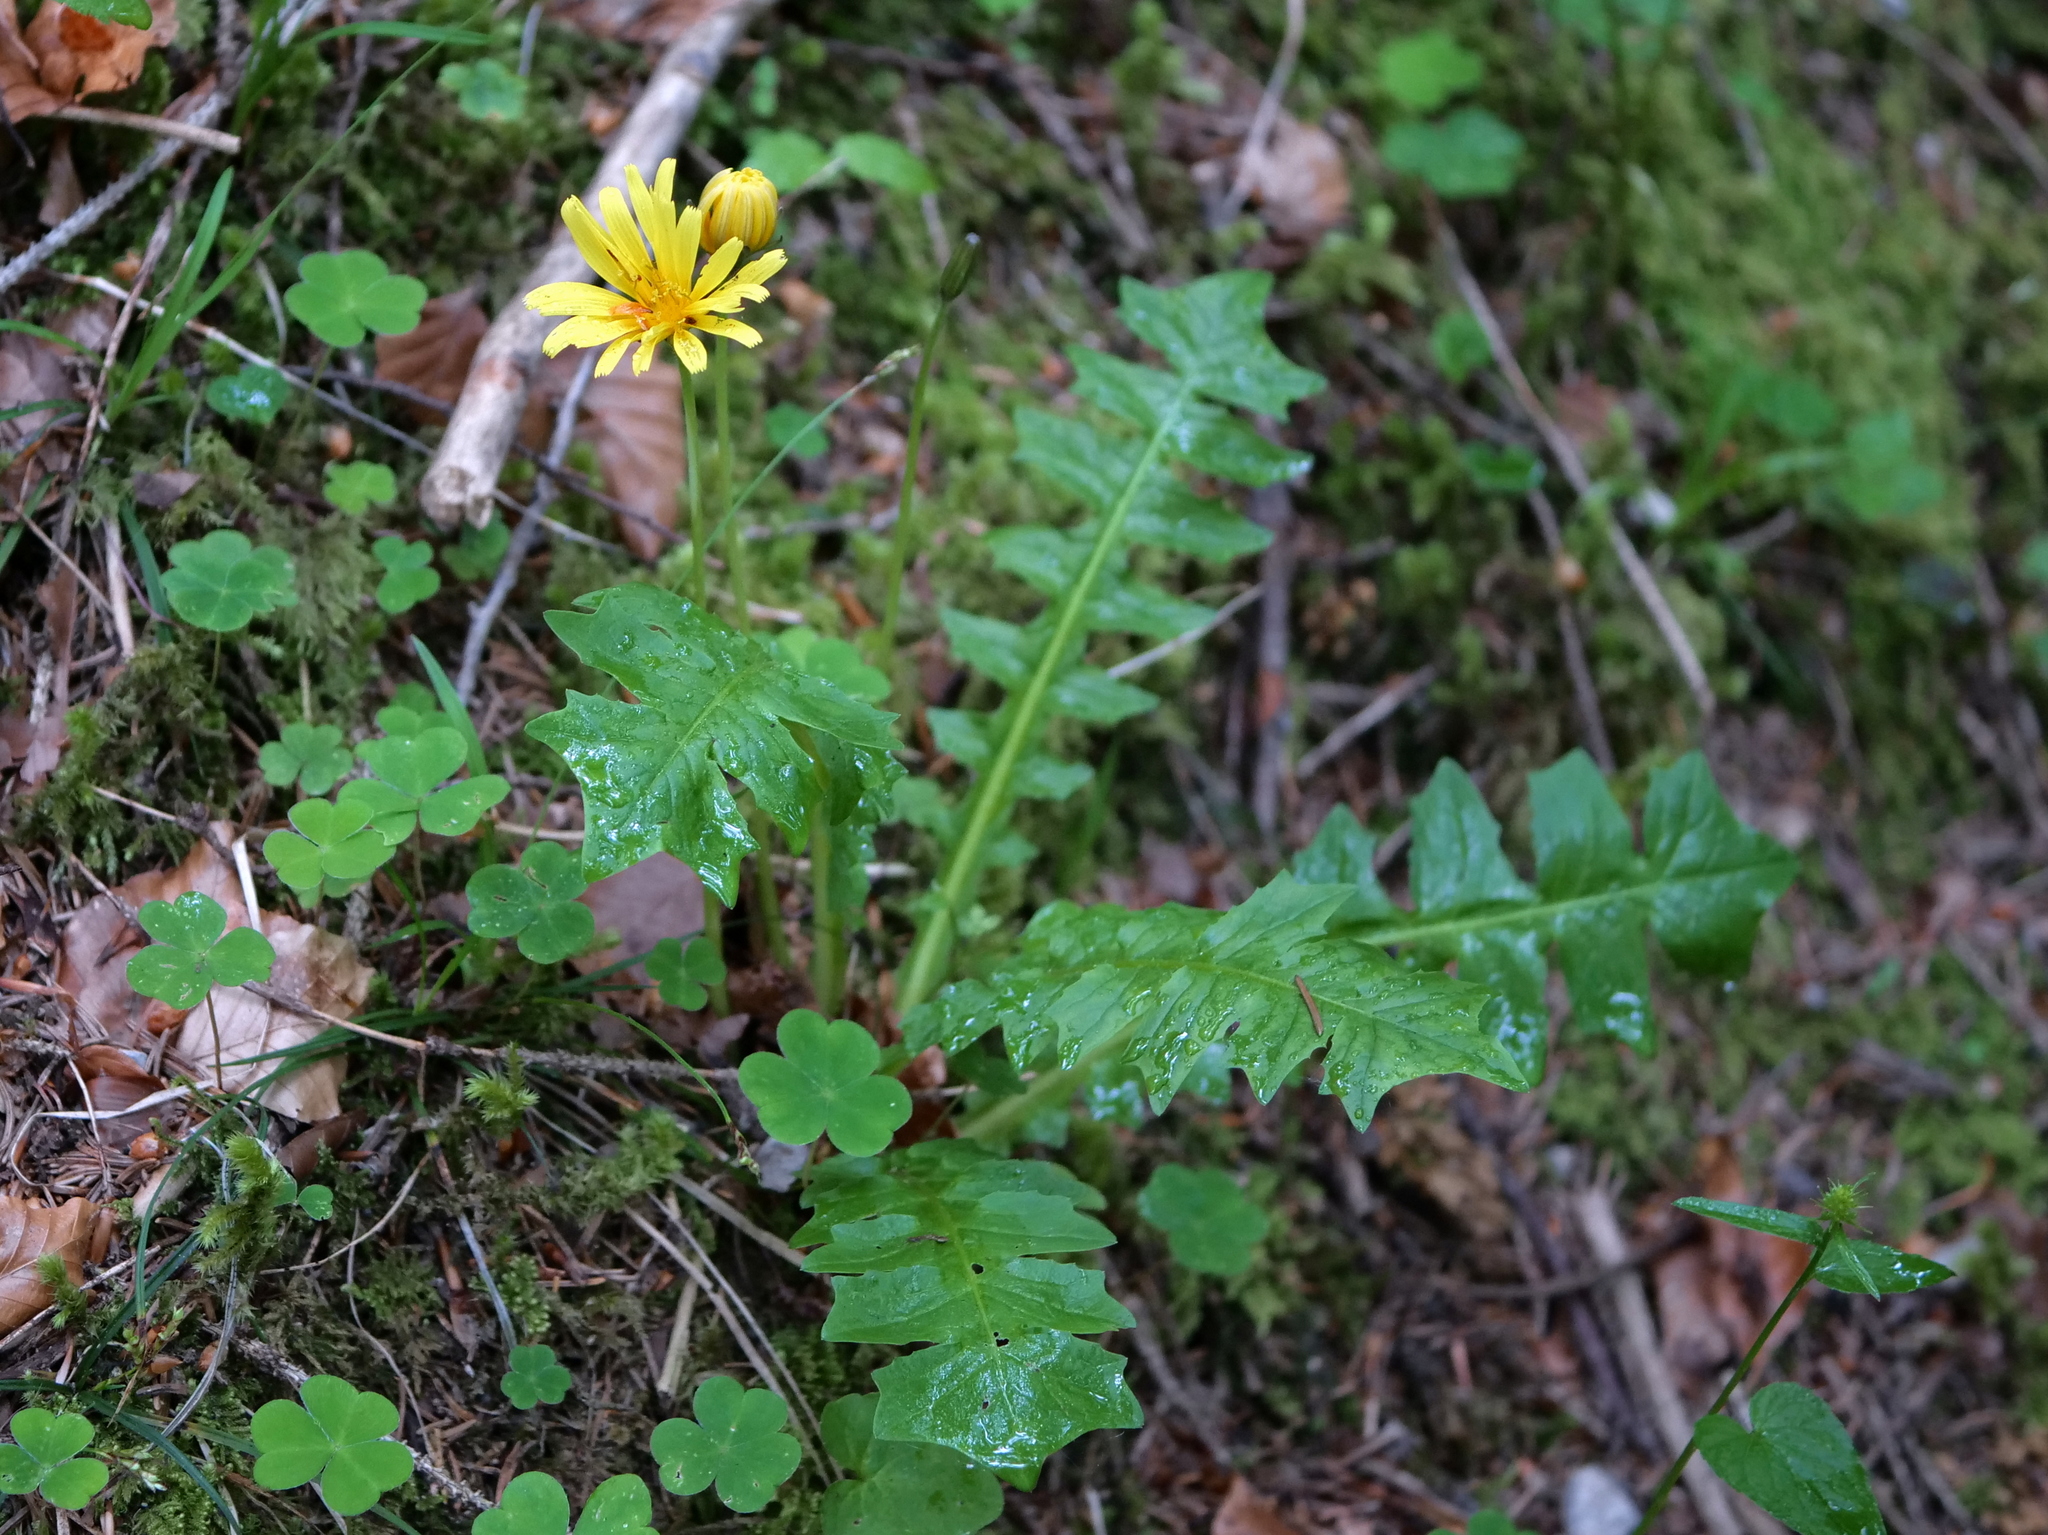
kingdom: Plantae
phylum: Tracheophyta
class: Magnoliopsida
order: Asterales
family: Asteraceae
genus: Aposeris
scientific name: Aposeris foetida
